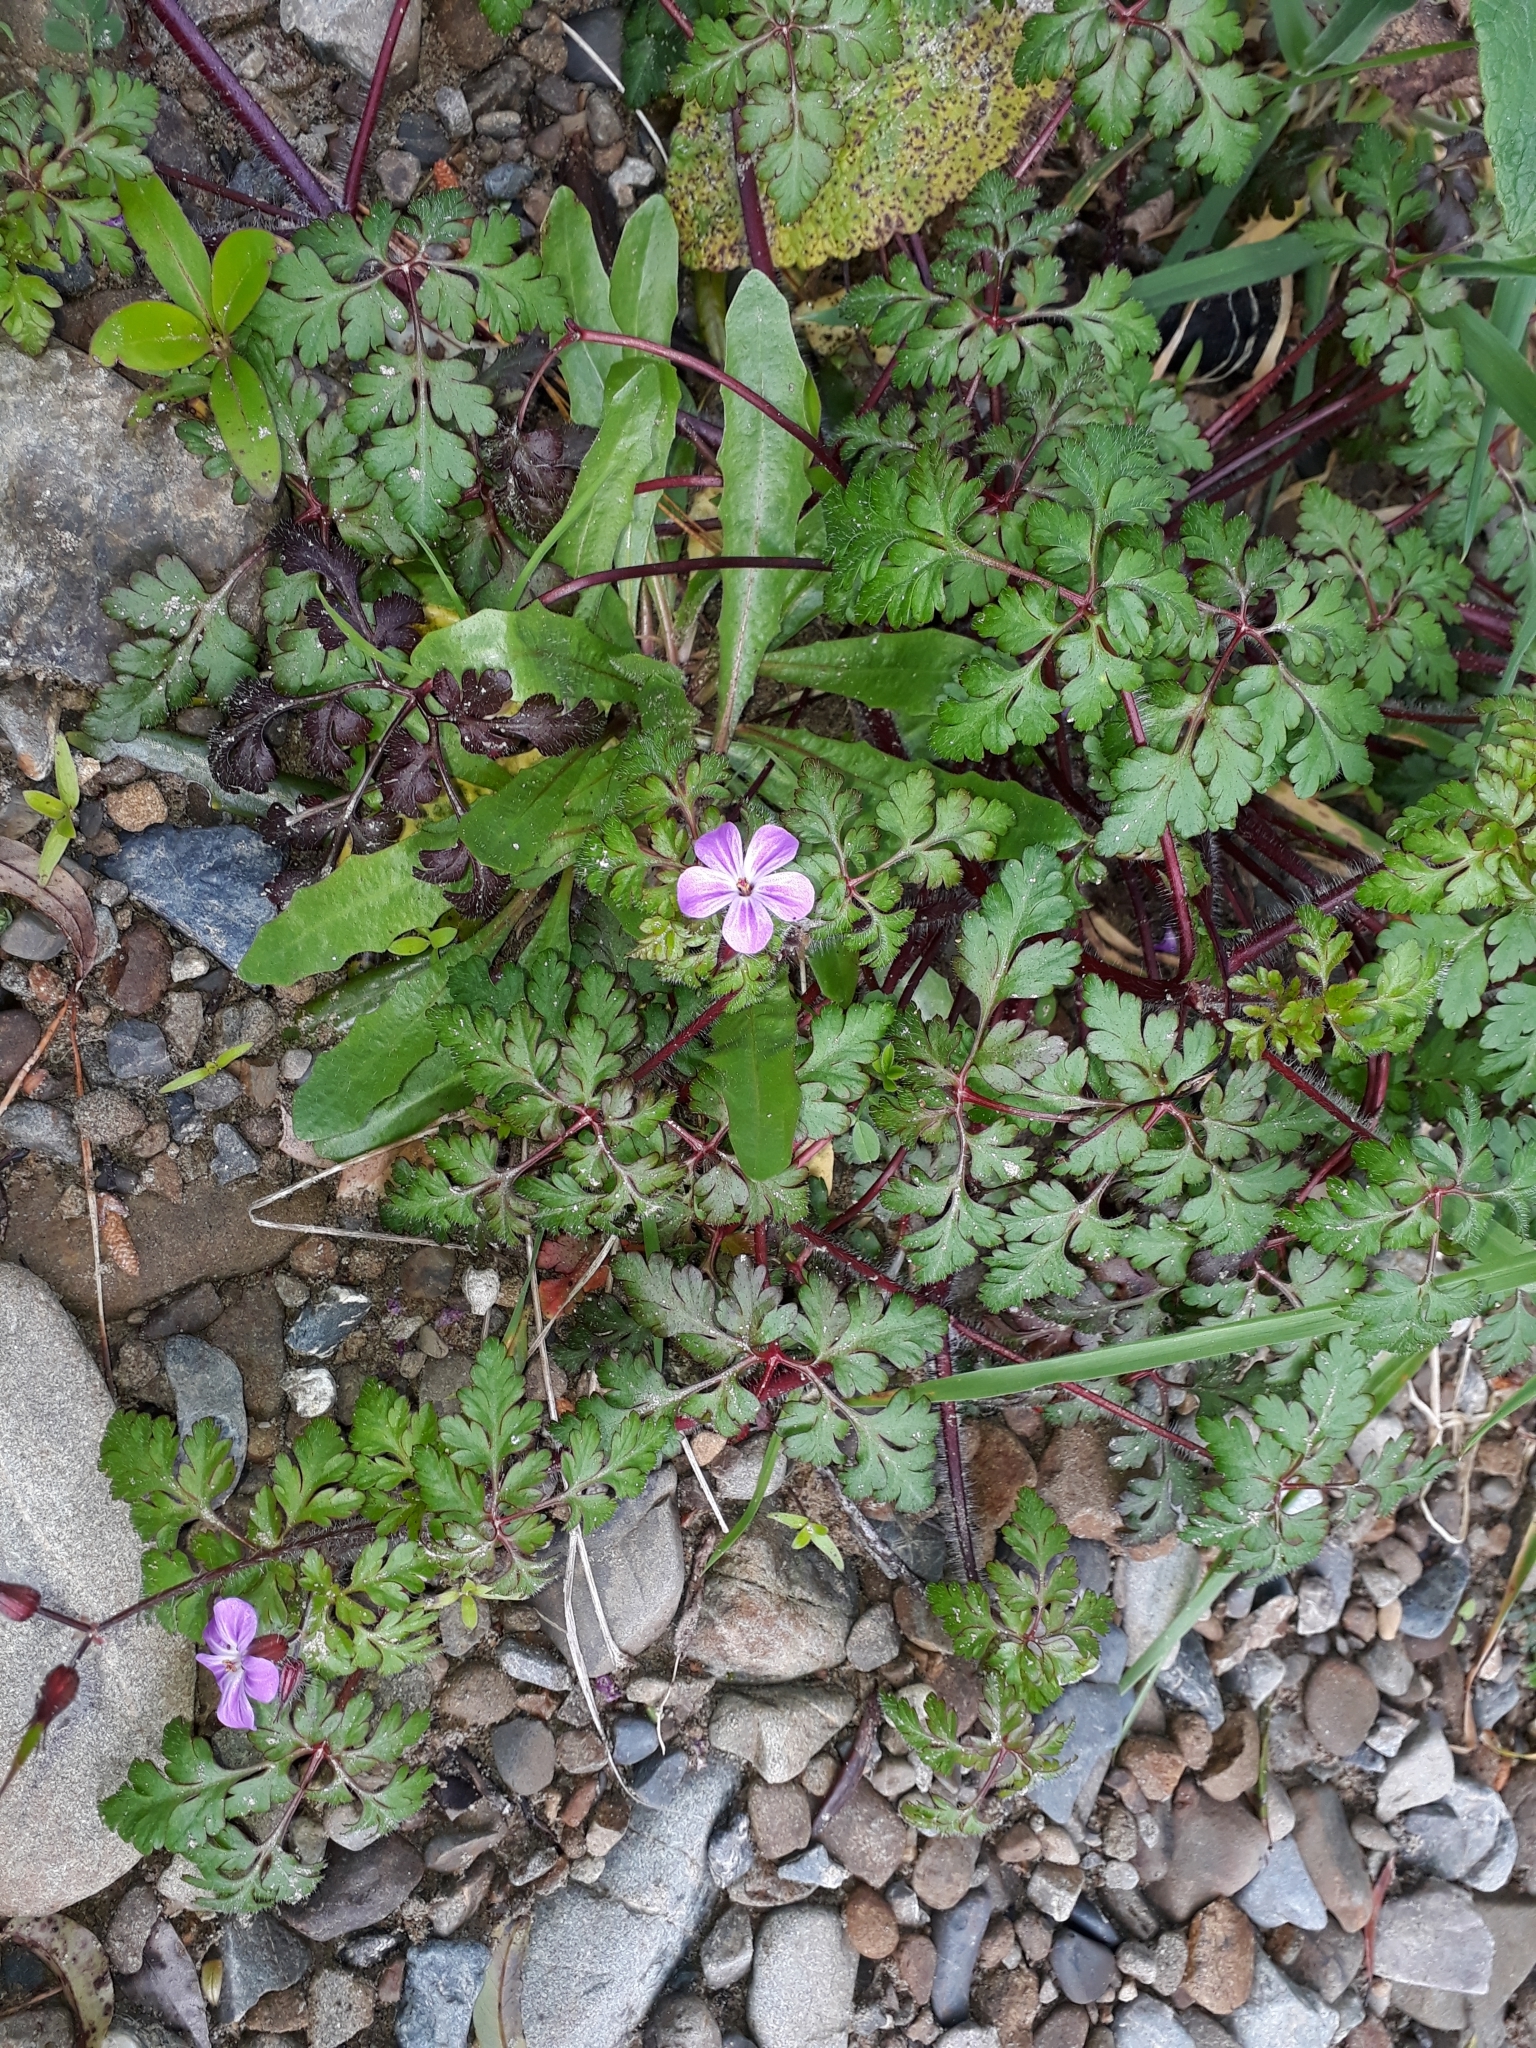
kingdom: Plantae
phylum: Tracheophyta
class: Magnoliopsida
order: Geraniales
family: Geraniaceae
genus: Geranium
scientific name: Geranium robertianum
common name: Herb-robert
